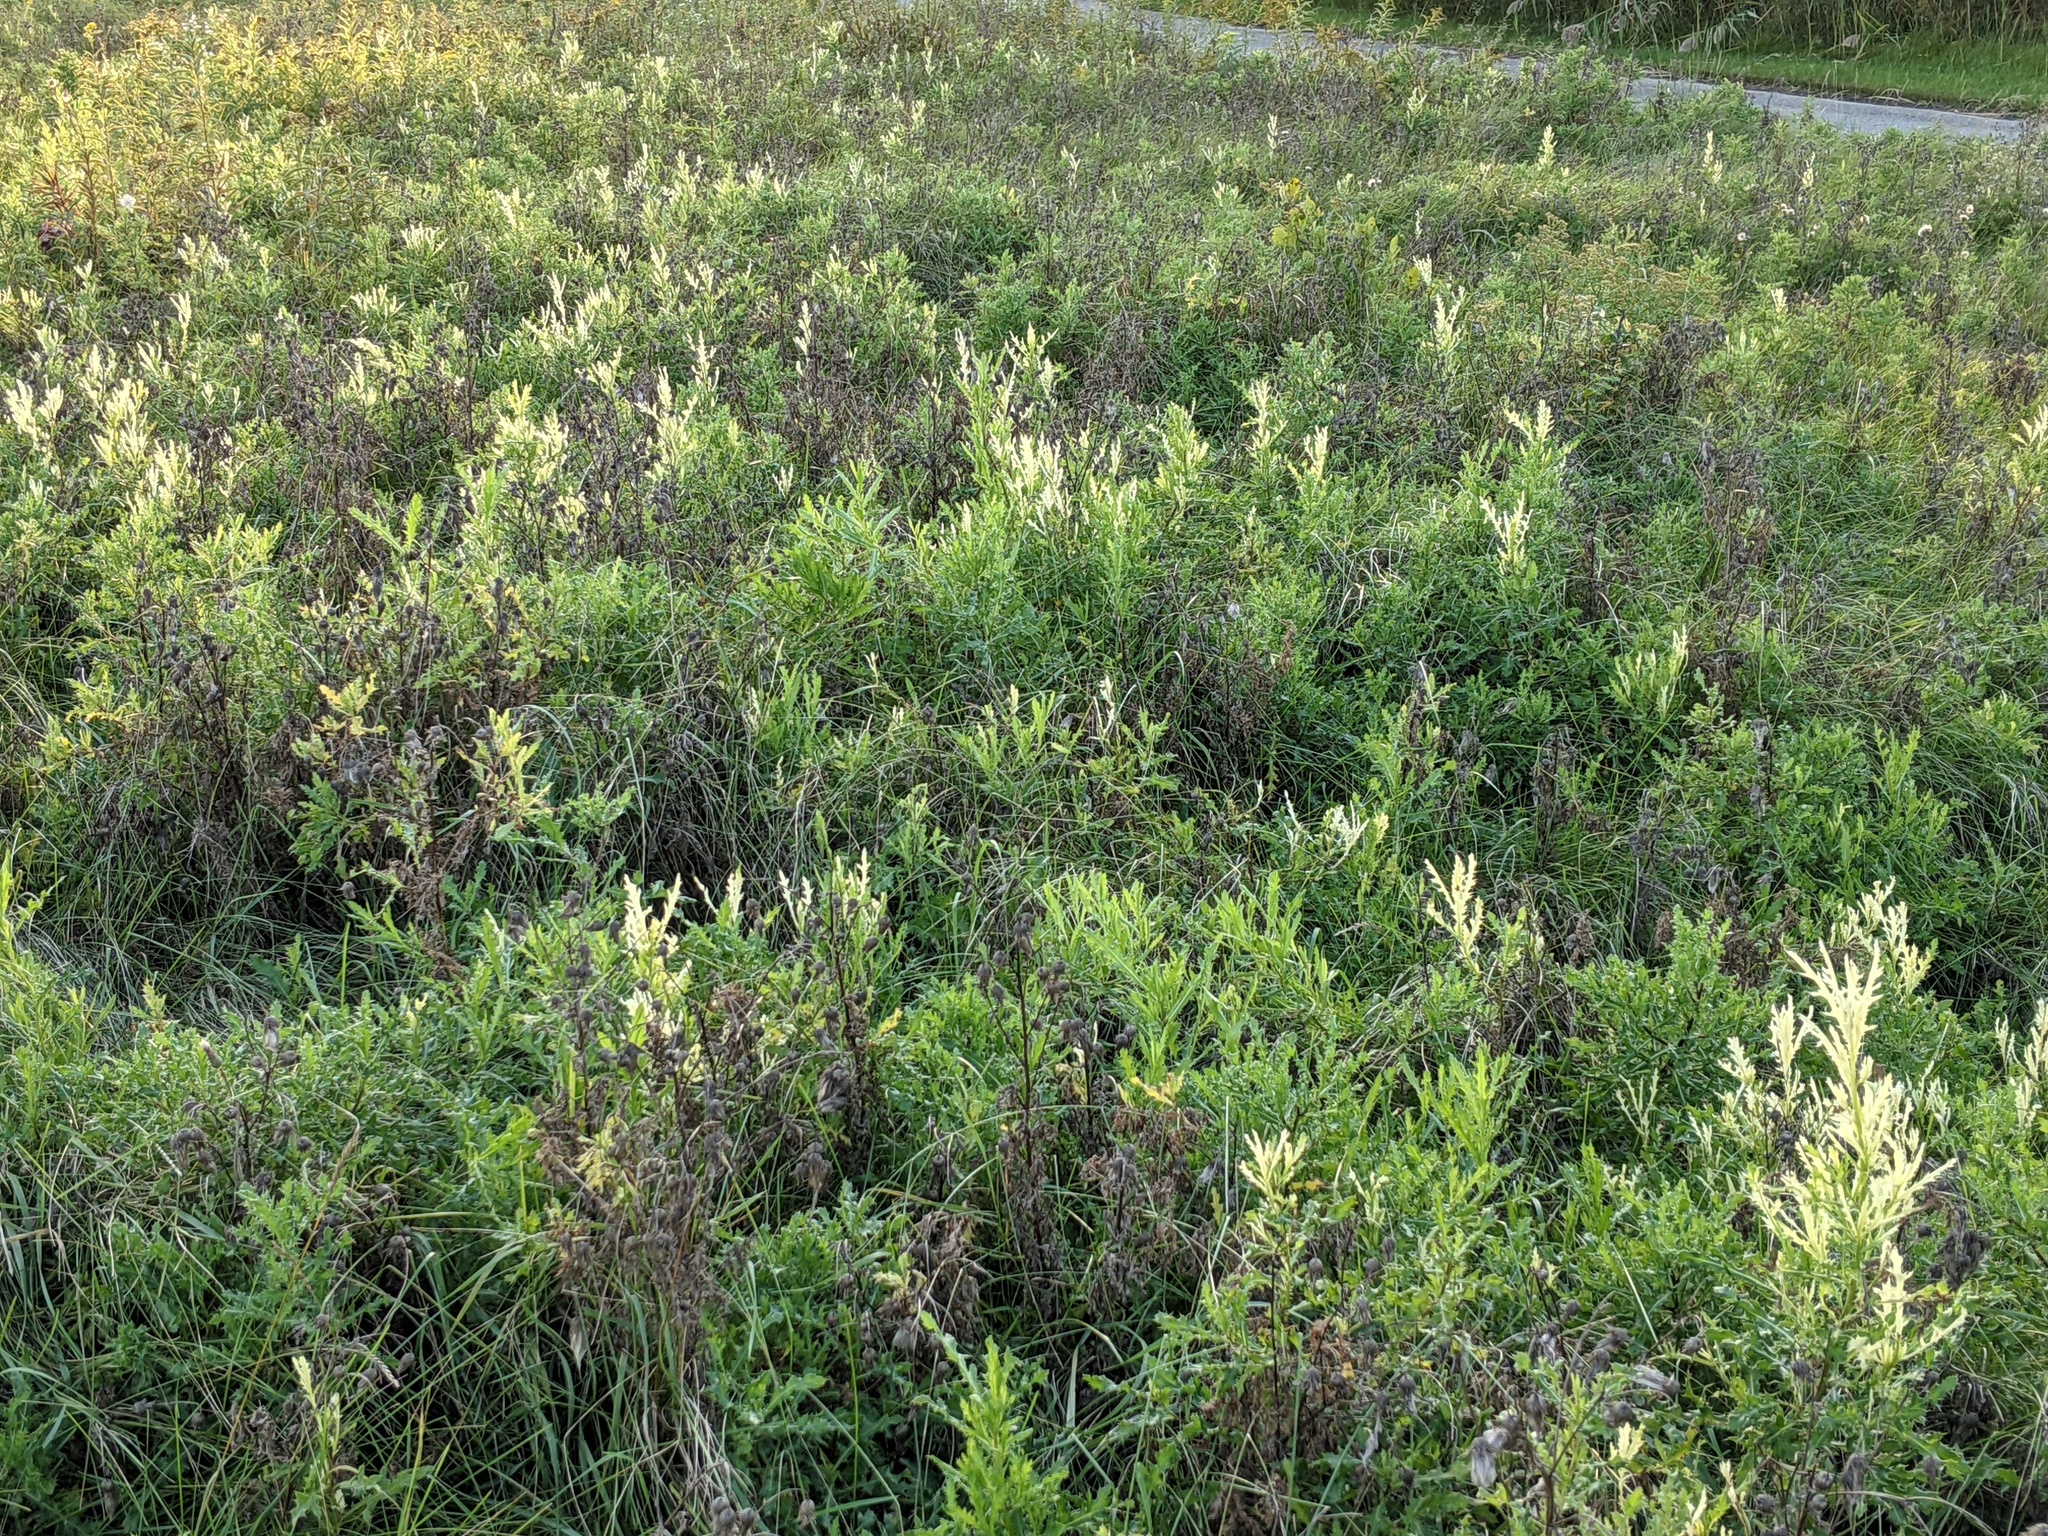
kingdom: Bacteria
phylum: Proteobacteria
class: Gammaproteobacteria
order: Pseudomonadales
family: Pseudomonadaceae
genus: Pseudomonas
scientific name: Pseudomonas syringae
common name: Bacterial speck
